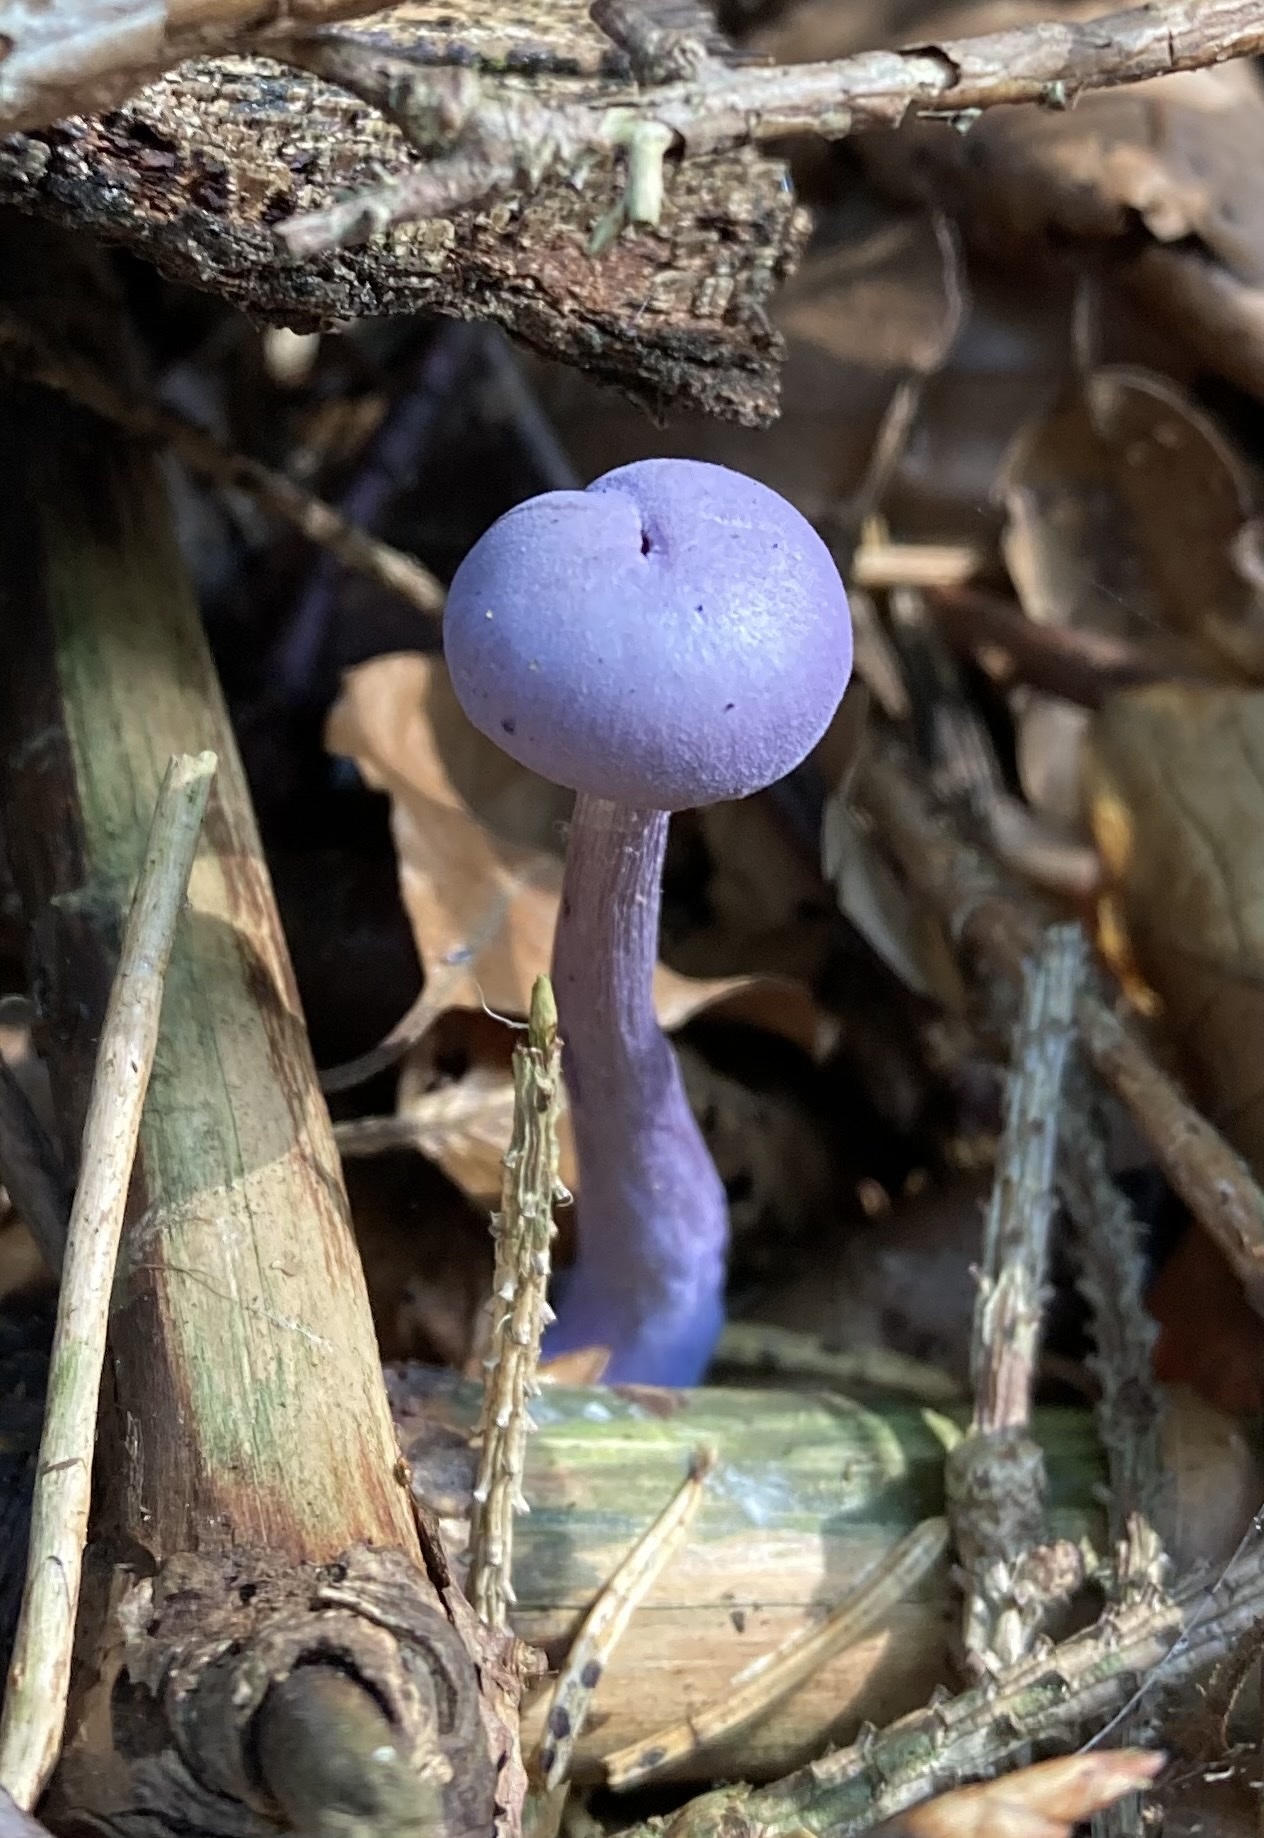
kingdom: Fungi
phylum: Basidiomycota
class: Agaricomycetes
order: Agaricales
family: Hydnangiaceae
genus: Laccaria
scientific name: Laccaria amethystina
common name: Amethyst deceiver
